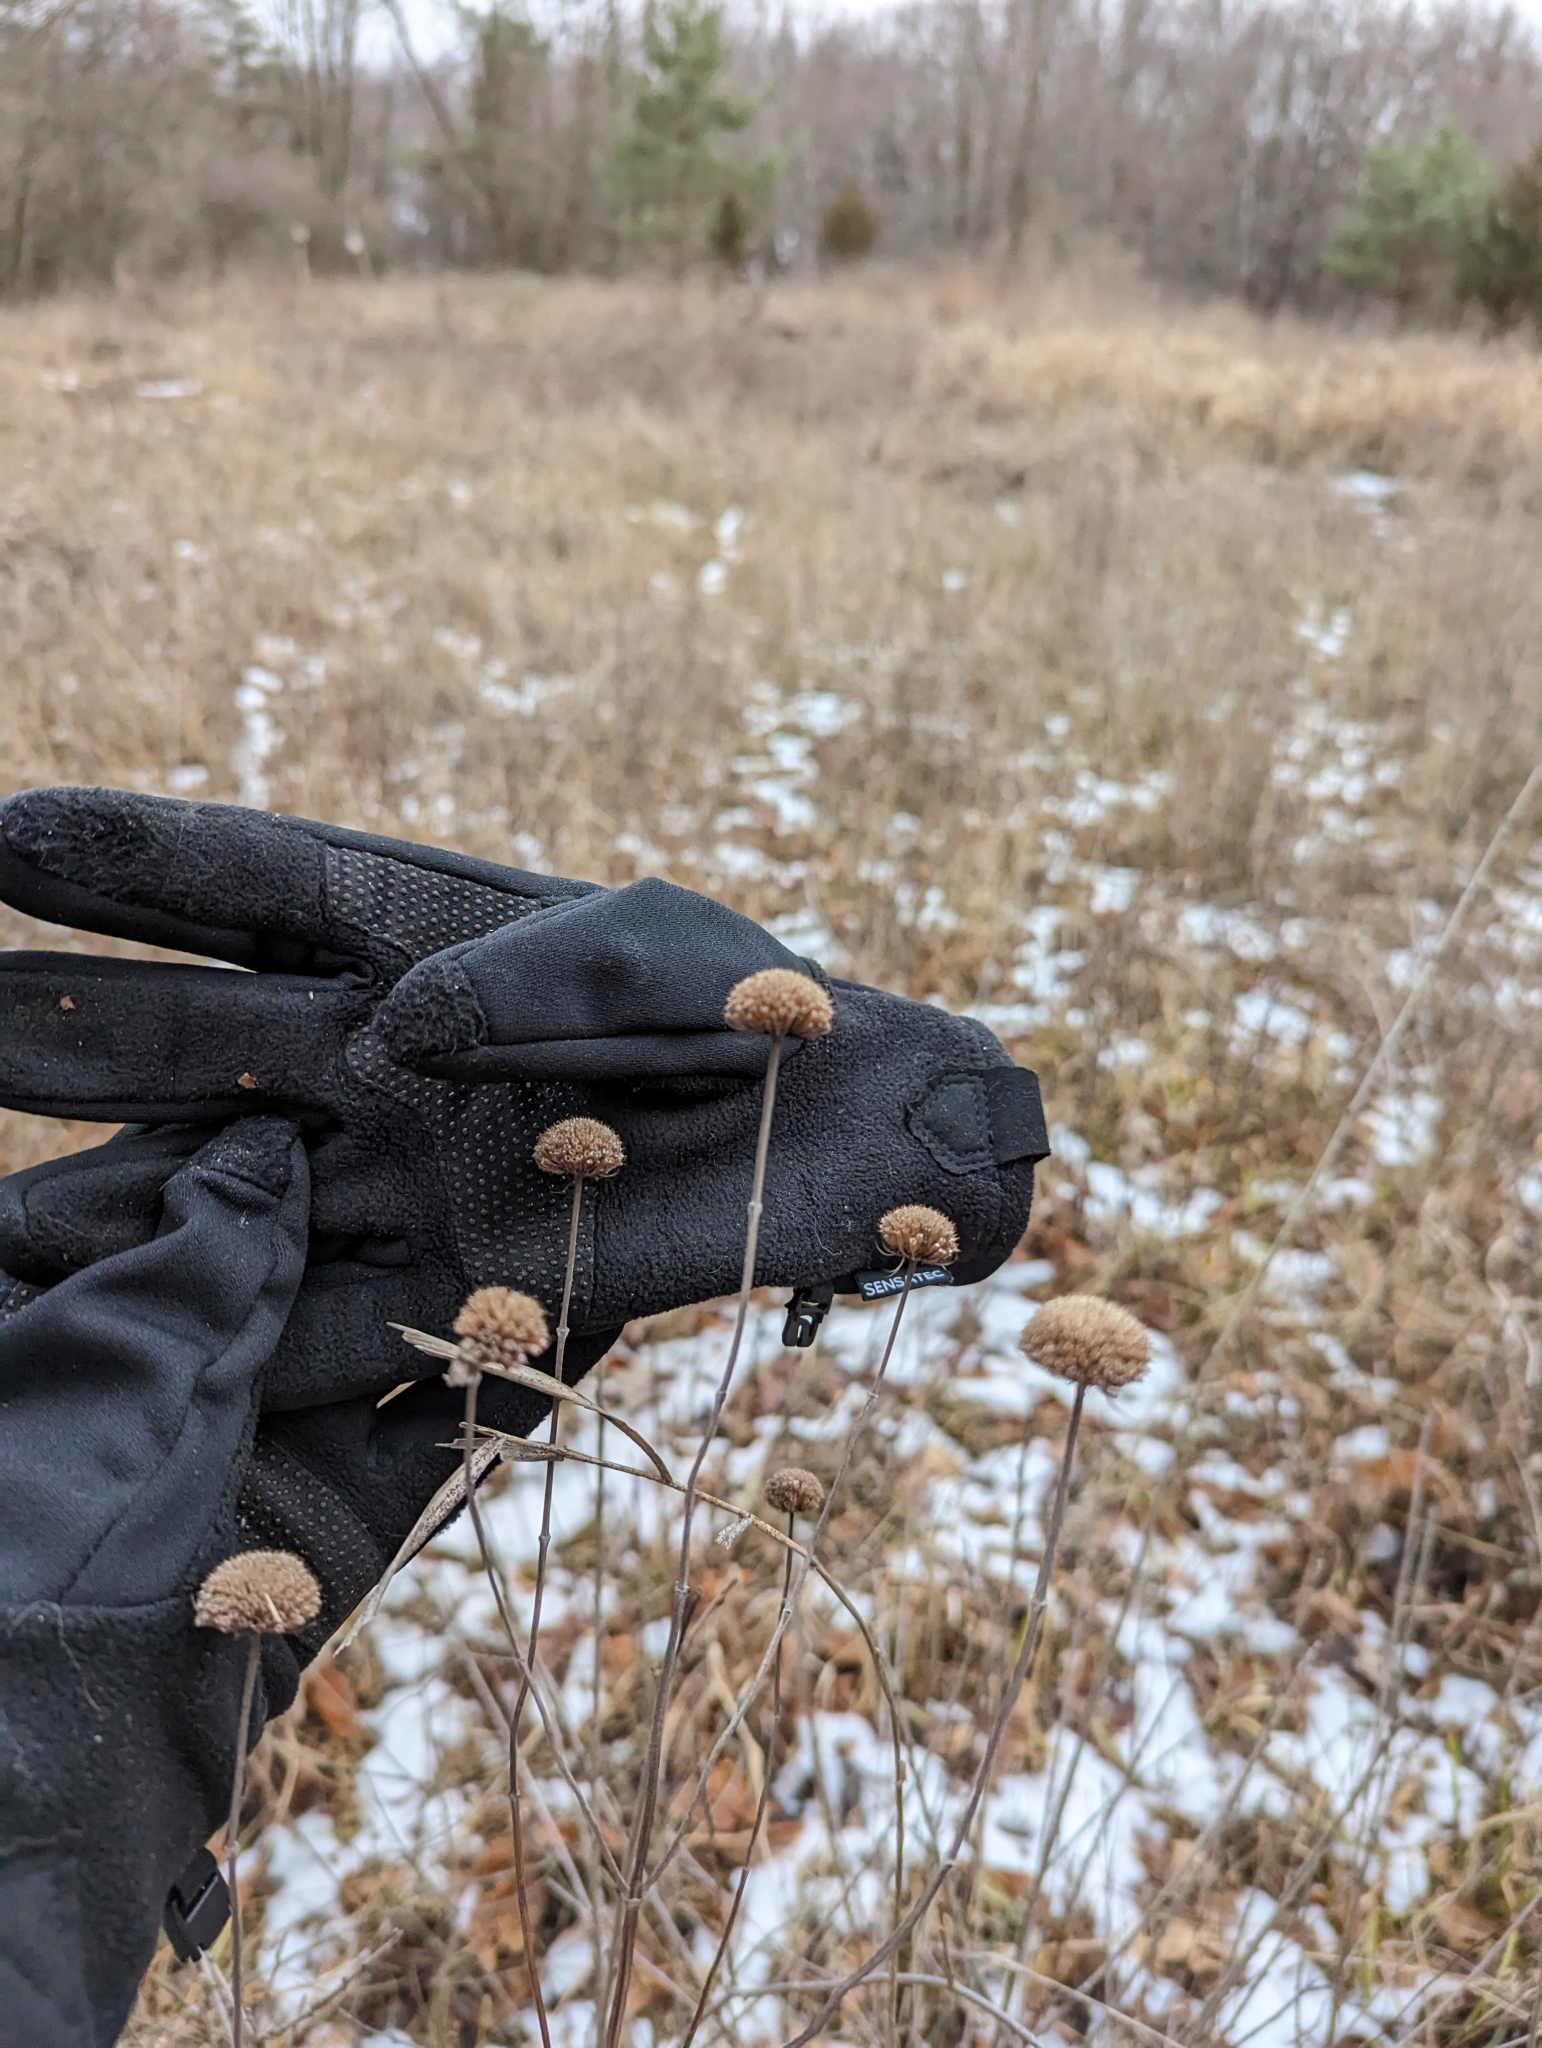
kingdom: Plantae
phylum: Tracheophyta
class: Magnoliopsida
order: Lamiales
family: Lamiaceae
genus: Monarda
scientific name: Monarda fistulosa
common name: Purple beebalm
